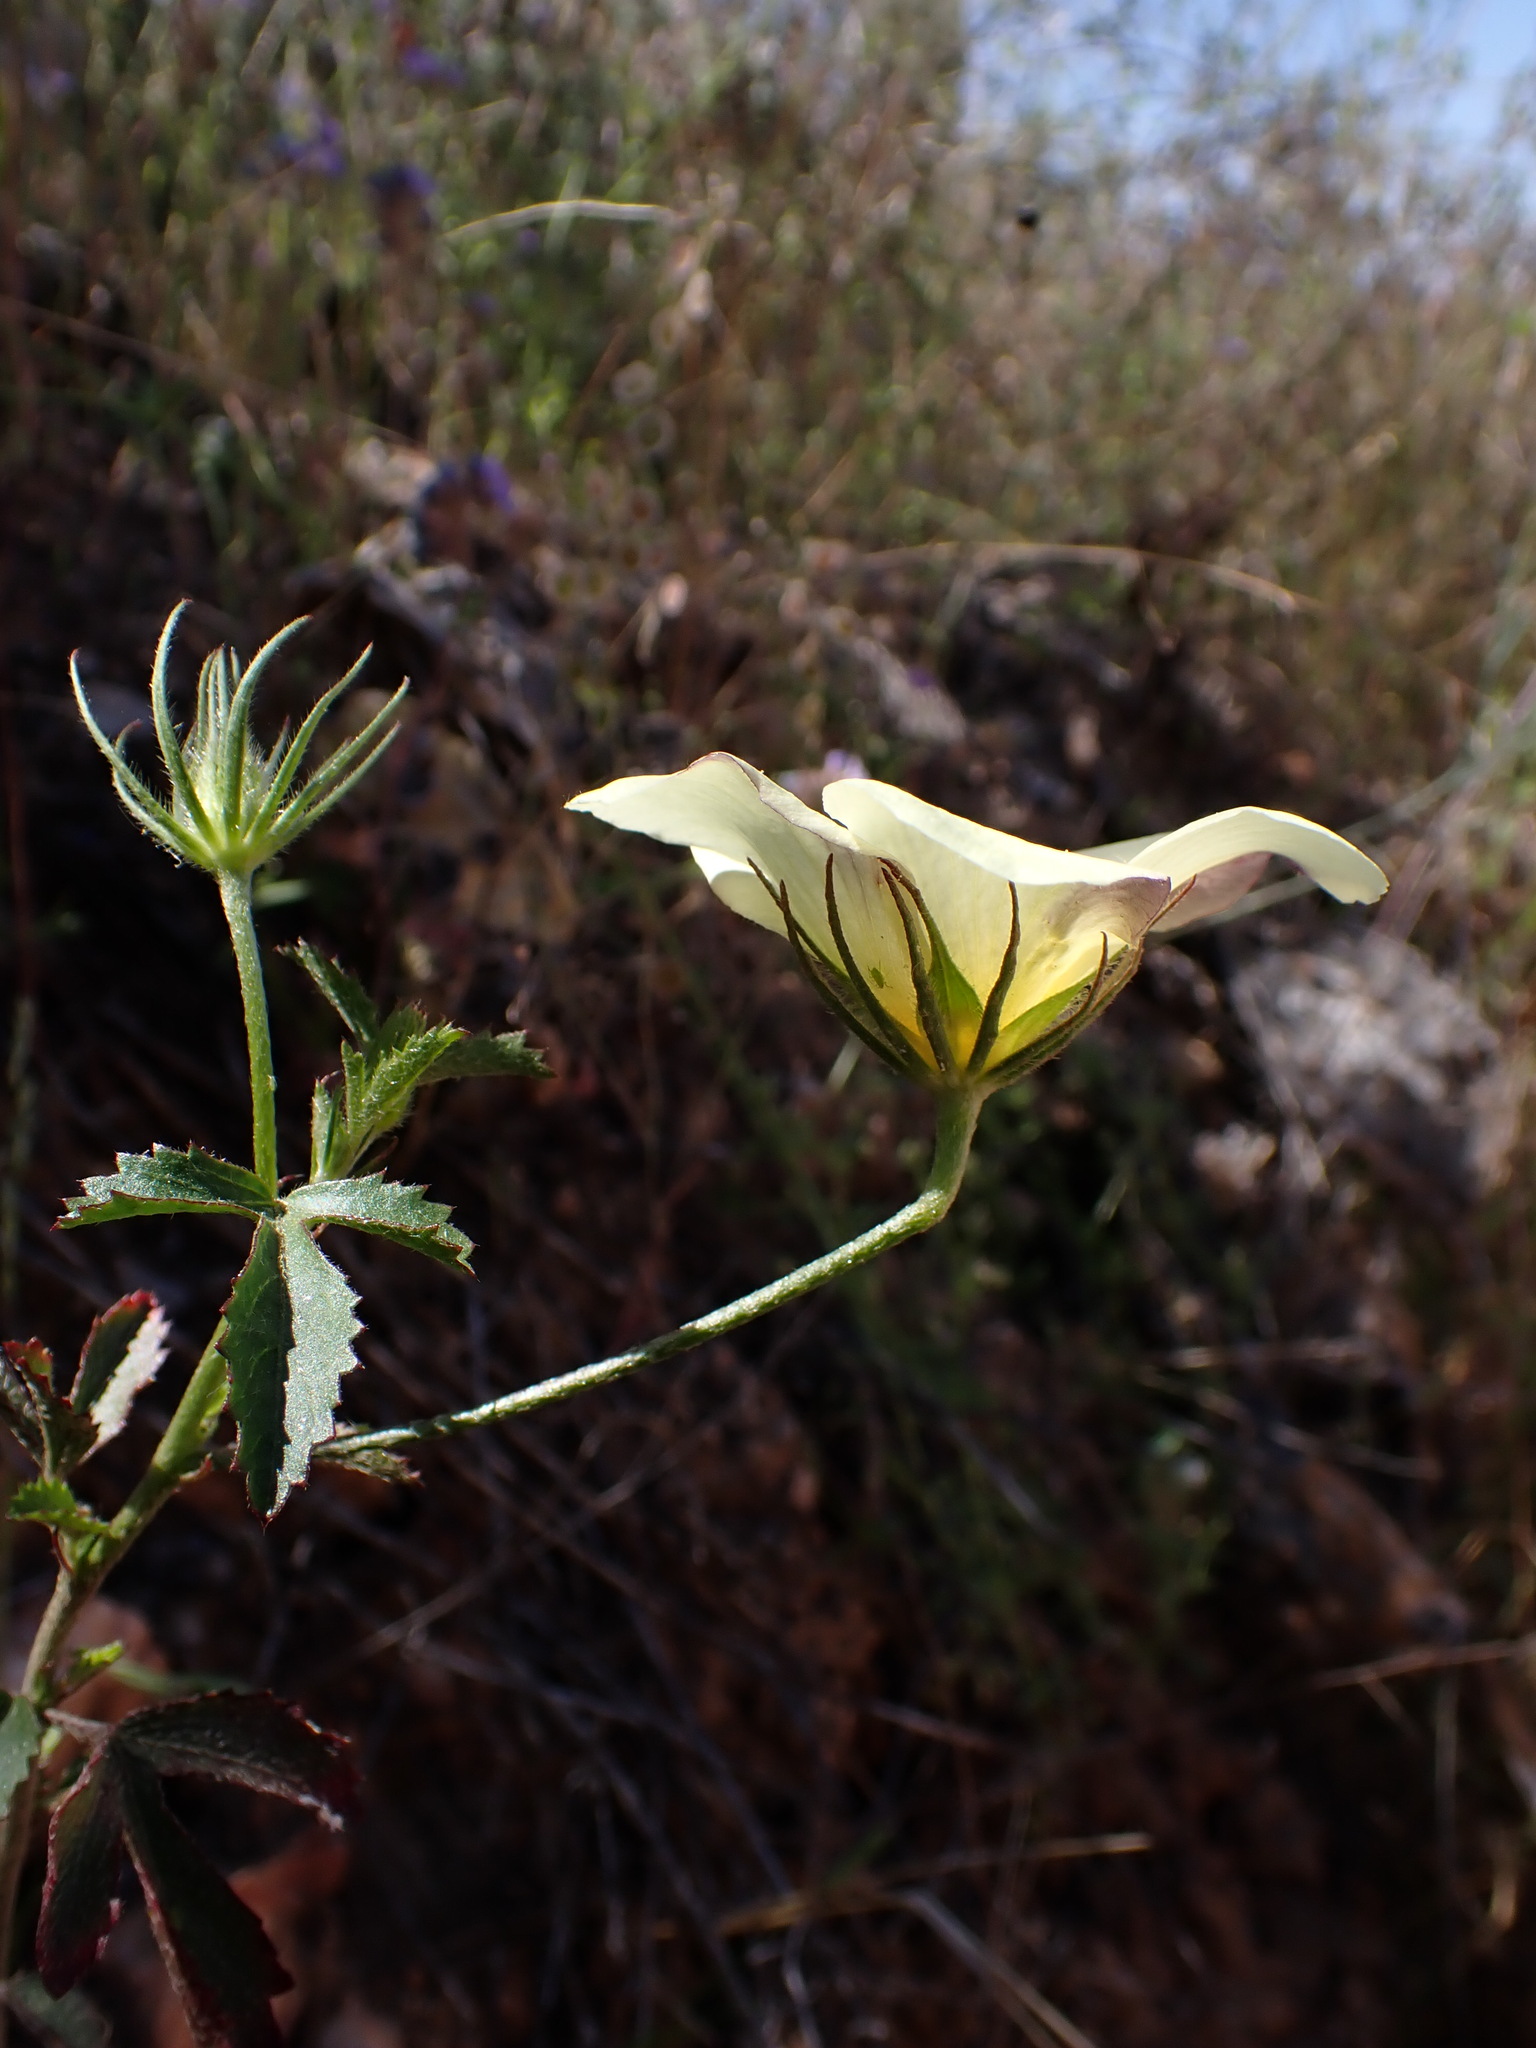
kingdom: Plantae
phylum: Tracheophyta
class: Magnoliopsida
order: Malvales
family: Malvaceae
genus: Hibiscus
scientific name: Hibiscus coulteri
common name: Desert rose-mallow
